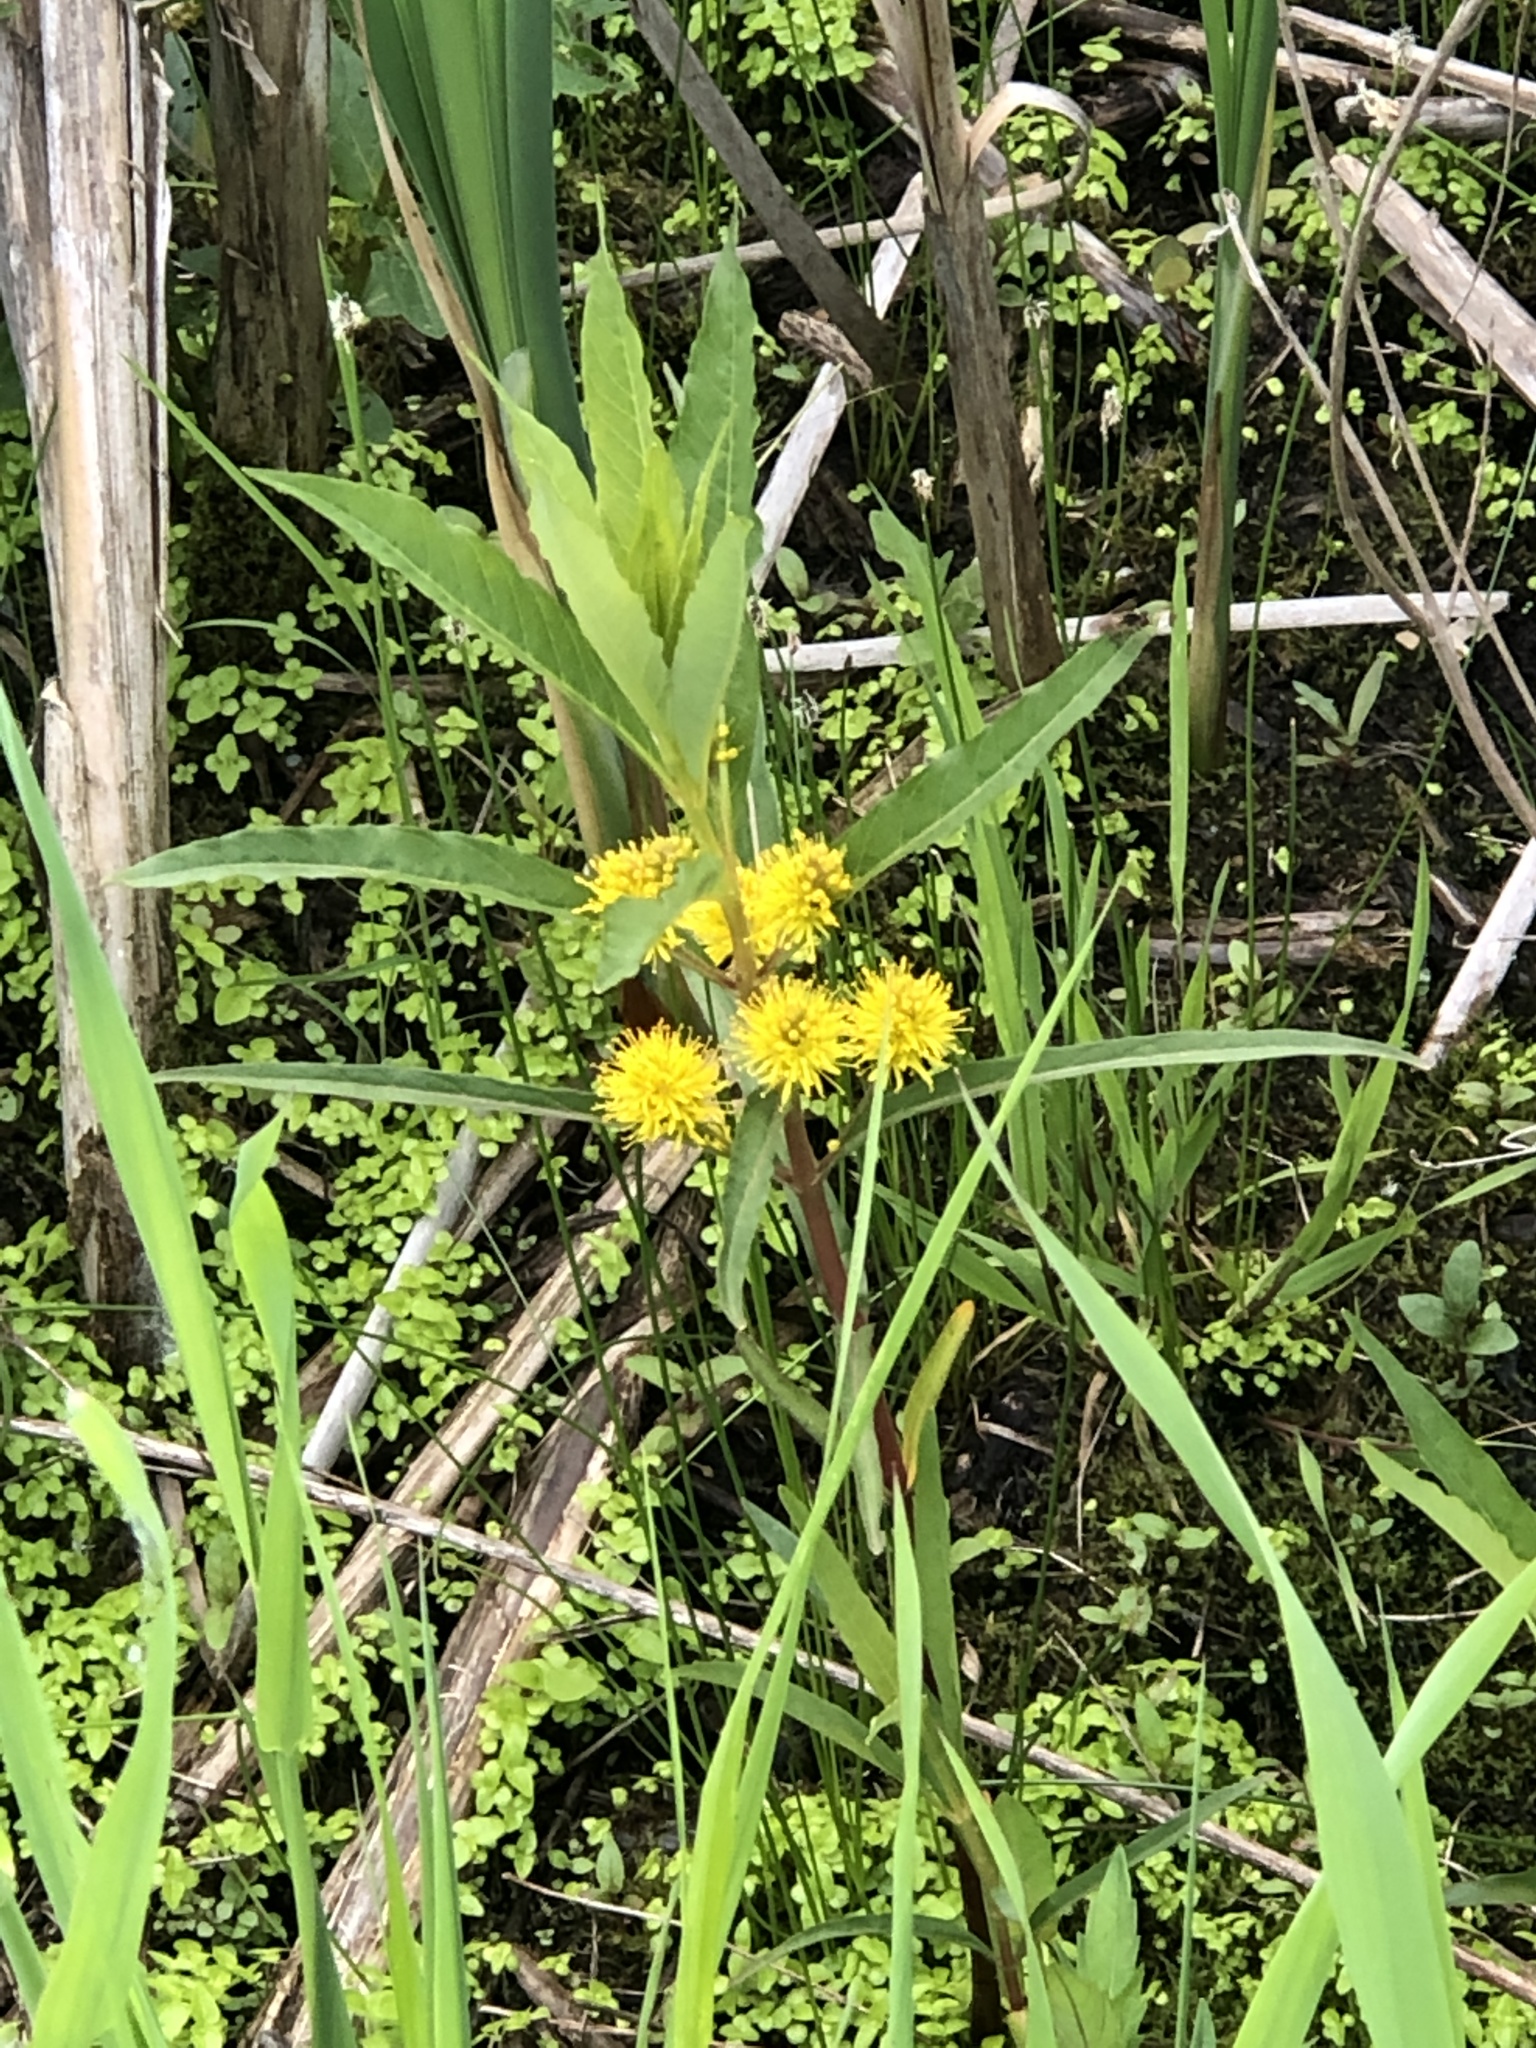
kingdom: Plantae
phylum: Tracheophyta
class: Magnoliopsida
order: Ericales
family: Primulaceae
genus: Lysimachia
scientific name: Lysimachia thyrsiflora
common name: Tufted loosestrife
